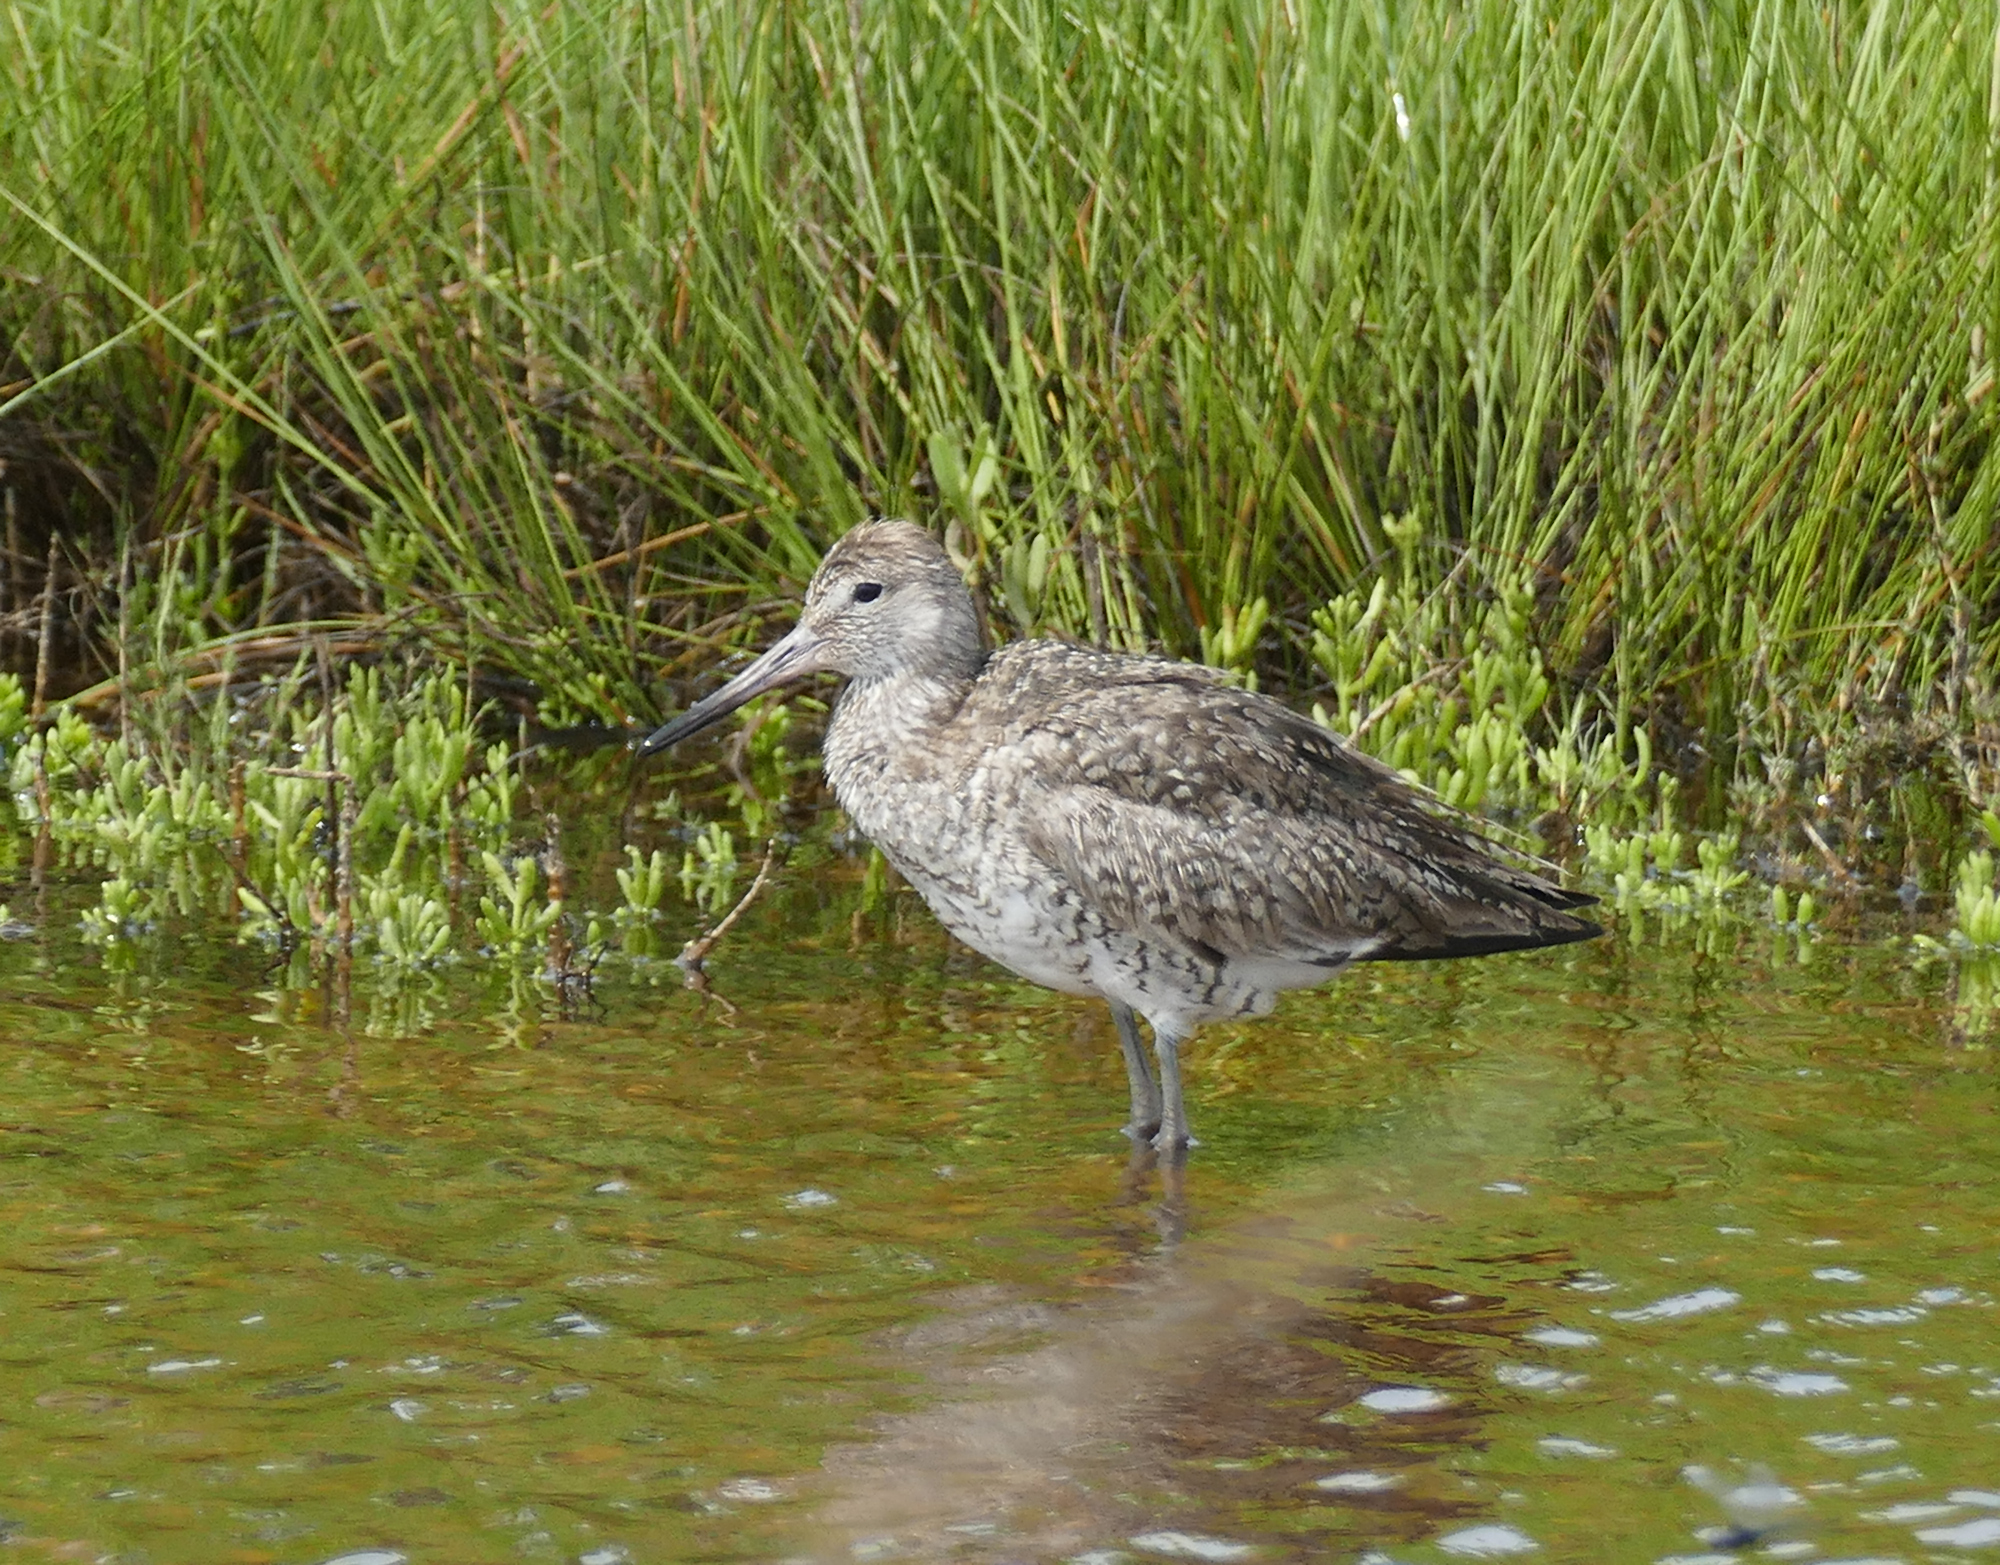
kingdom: Animalia
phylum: Chordata
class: Aves
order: Charadriiformes
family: Scolopacidae
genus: Tringa
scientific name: Tringa semipalmata
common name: Willet
